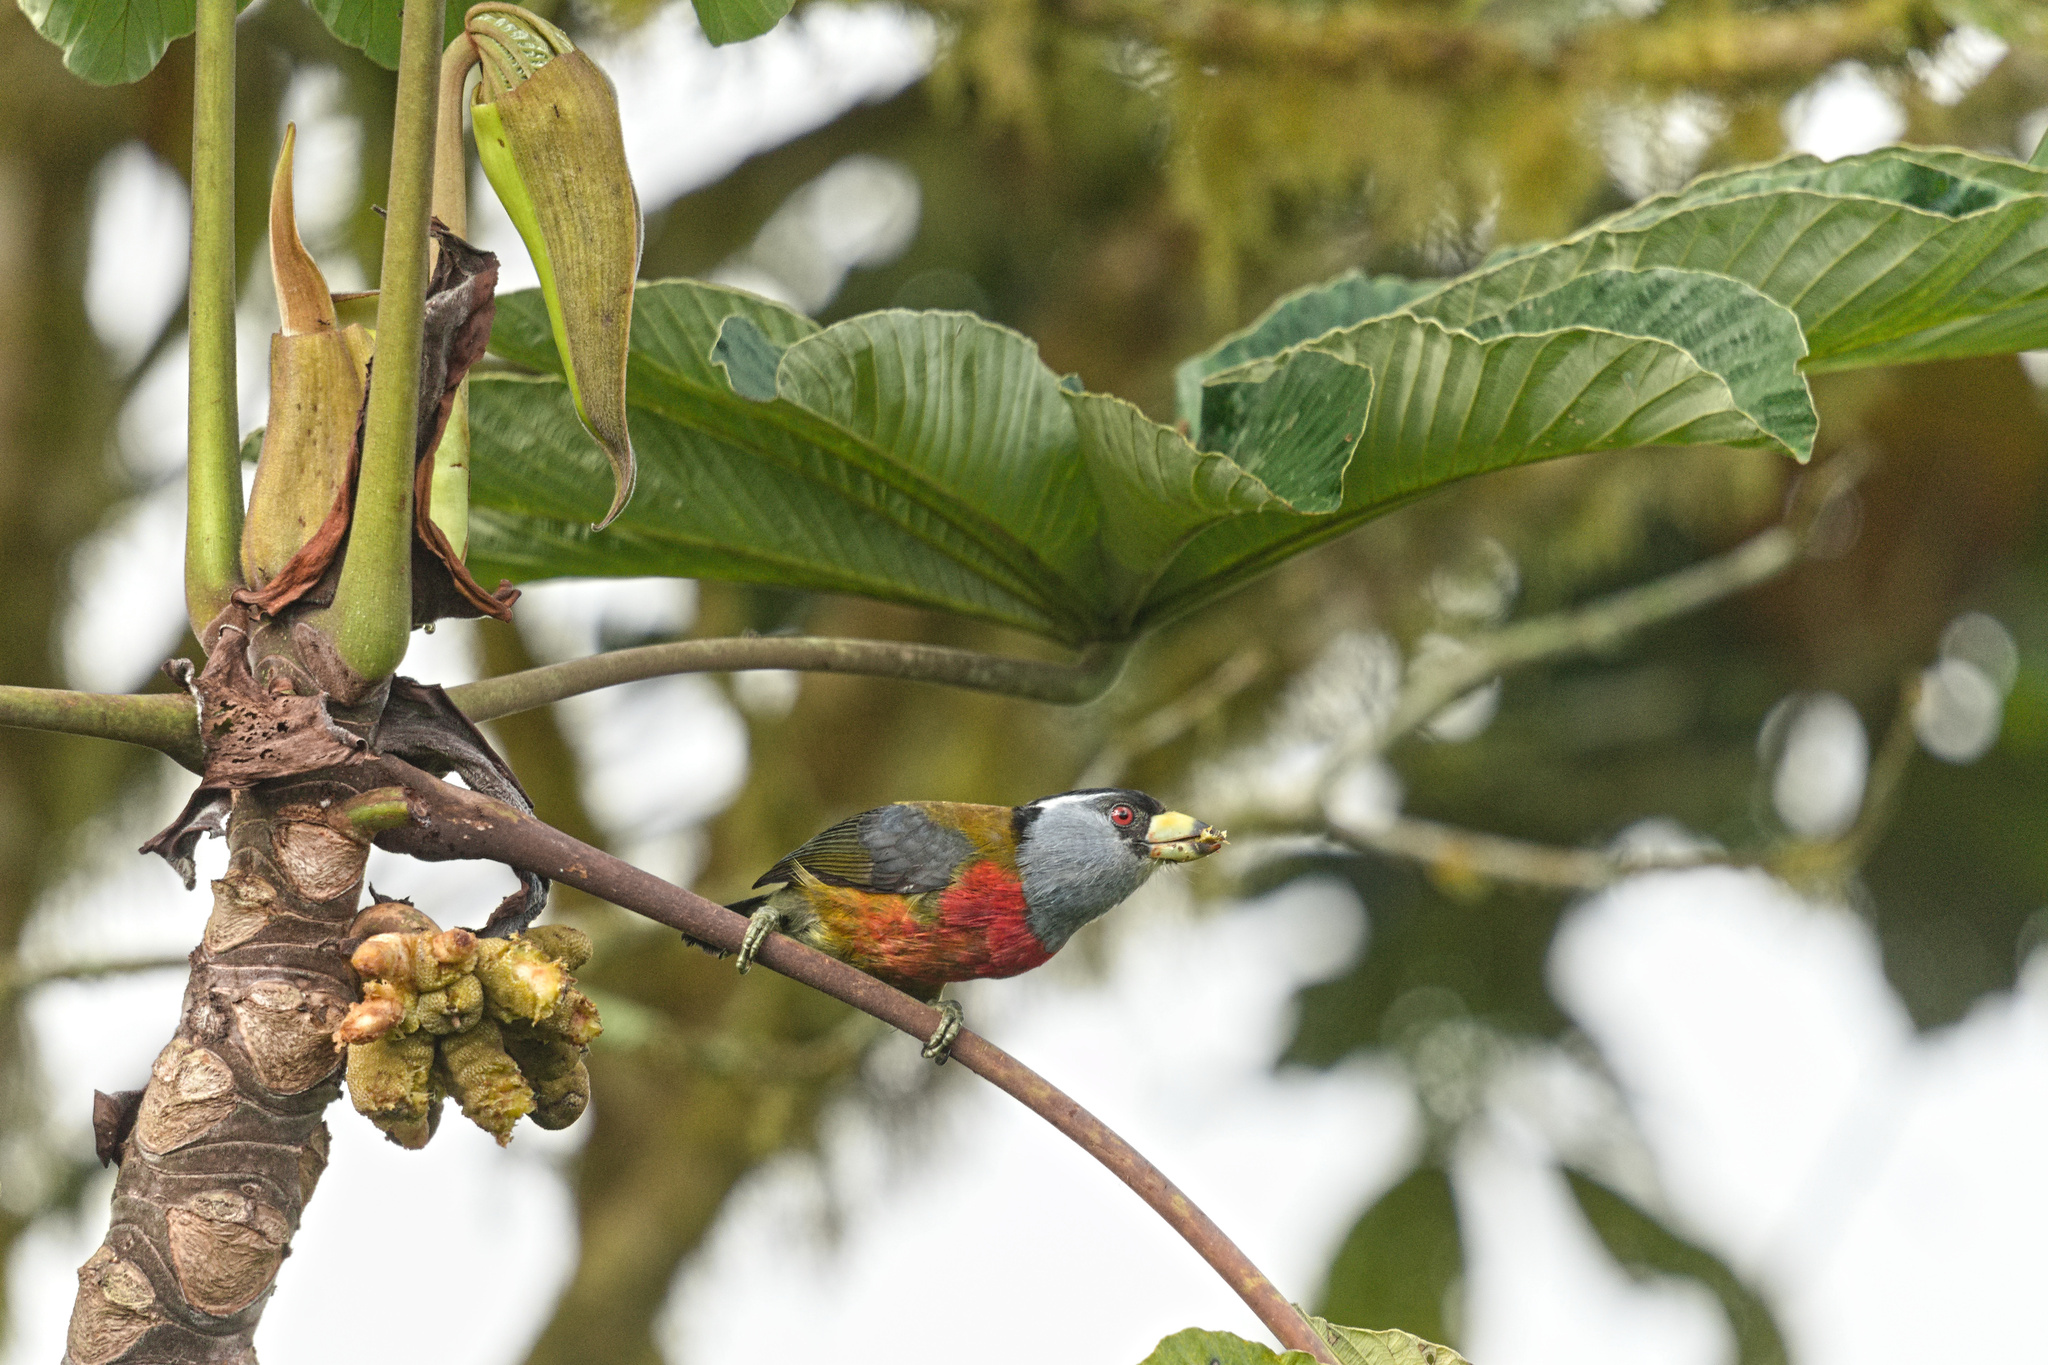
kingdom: Animalia
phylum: Chordata
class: Aves
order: Piciformes
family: Semnornithidae
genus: Semnornis
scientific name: Semnornis ramphastinus
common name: Toucan barbet
